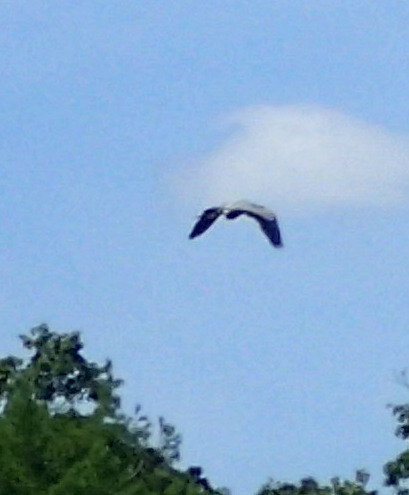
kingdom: Animalia
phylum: Chordata
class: Aves
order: Pelecaniformes
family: Ardeidae
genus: Ardea
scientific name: Ardea herodias
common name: Great blue heron
